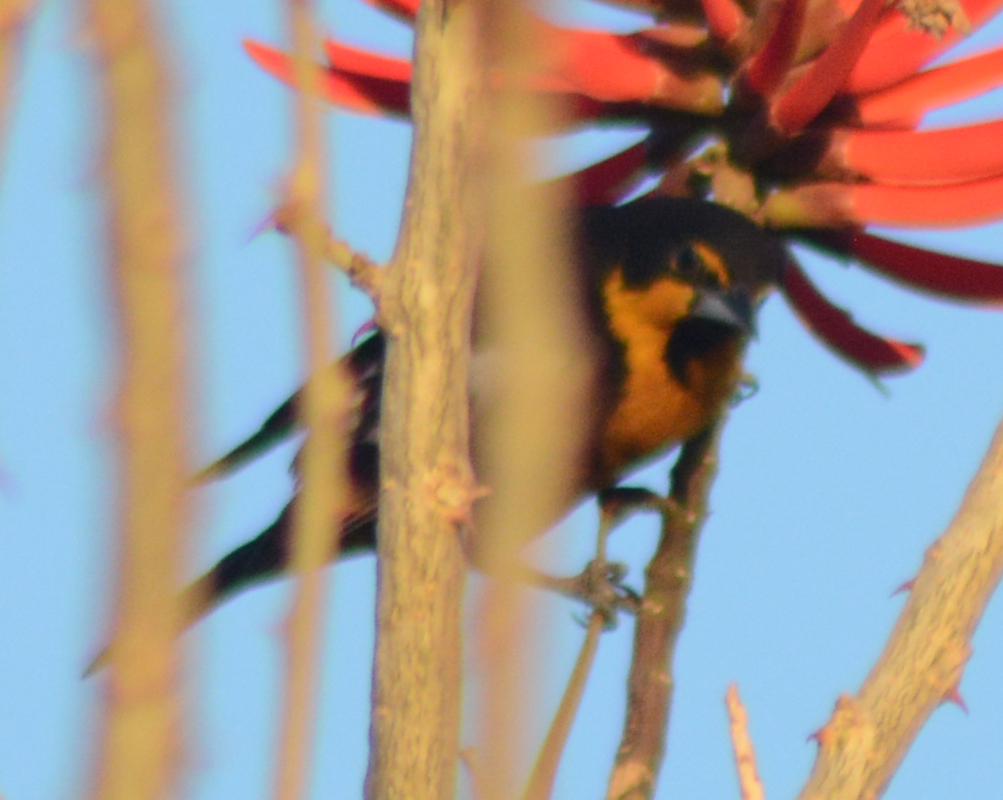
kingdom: Animalia
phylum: Chordata
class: Aves
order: Passeriformes
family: Icteridae
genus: Icterus
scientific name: Icterus abeillei
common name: Black-backed oriole
